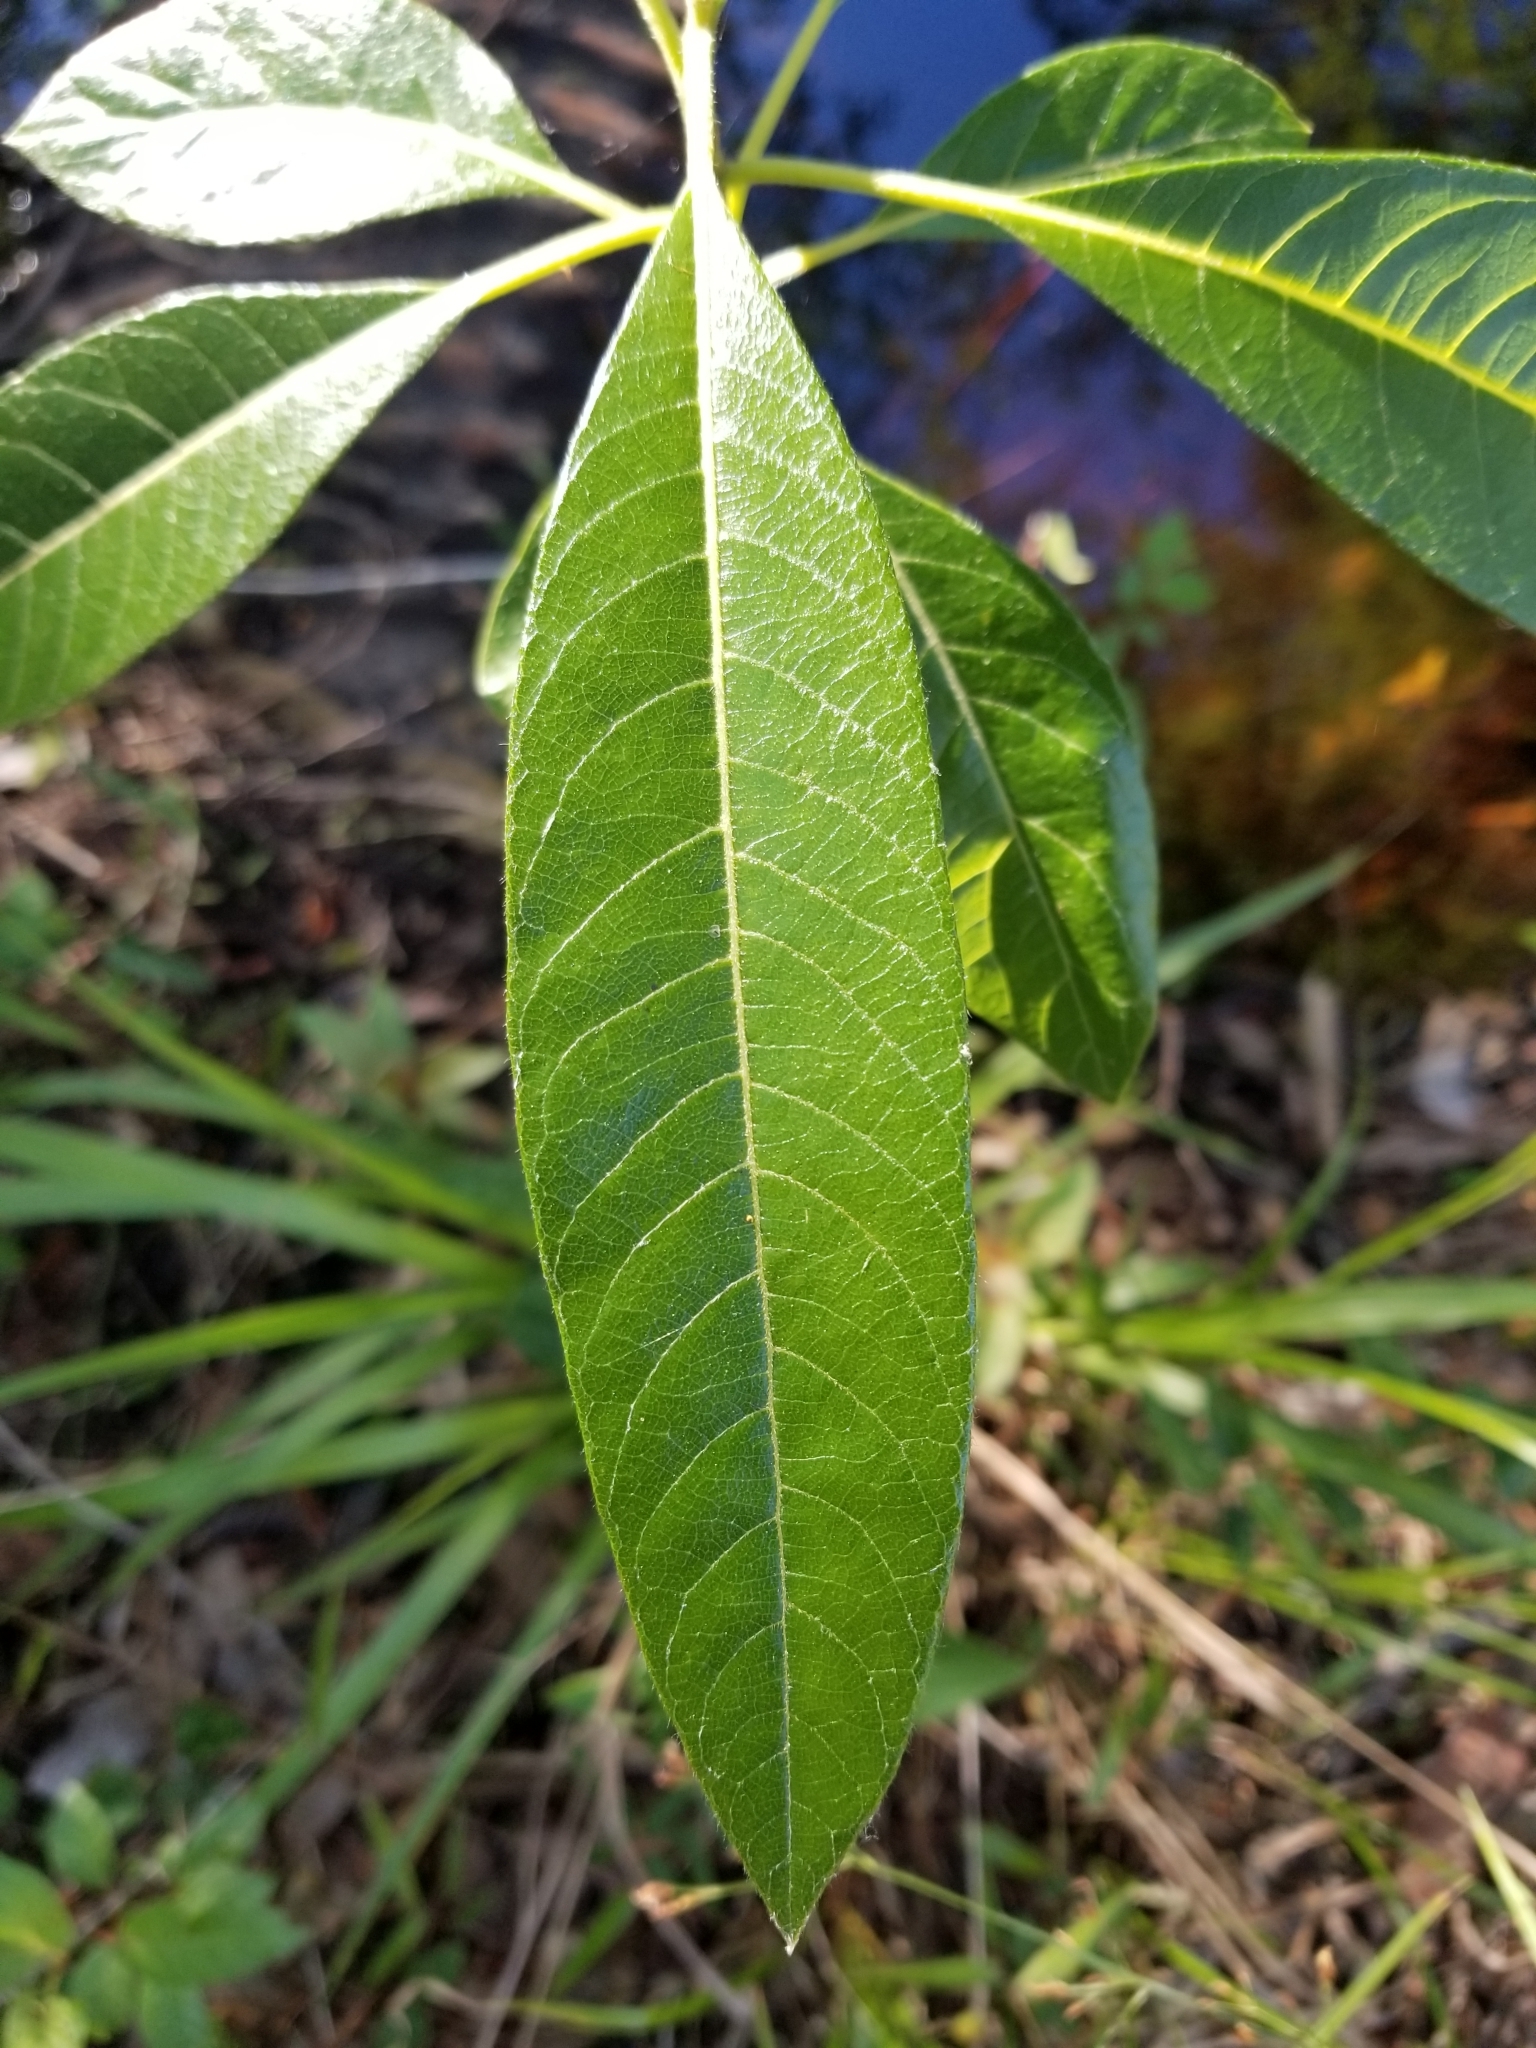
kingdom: Plantae
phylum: Tracheophyta
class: Magnoliopsida
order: Sapindales
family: Simaroubaceae
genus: Leitneria
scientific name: Leitneria floridana
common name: Corkwood
